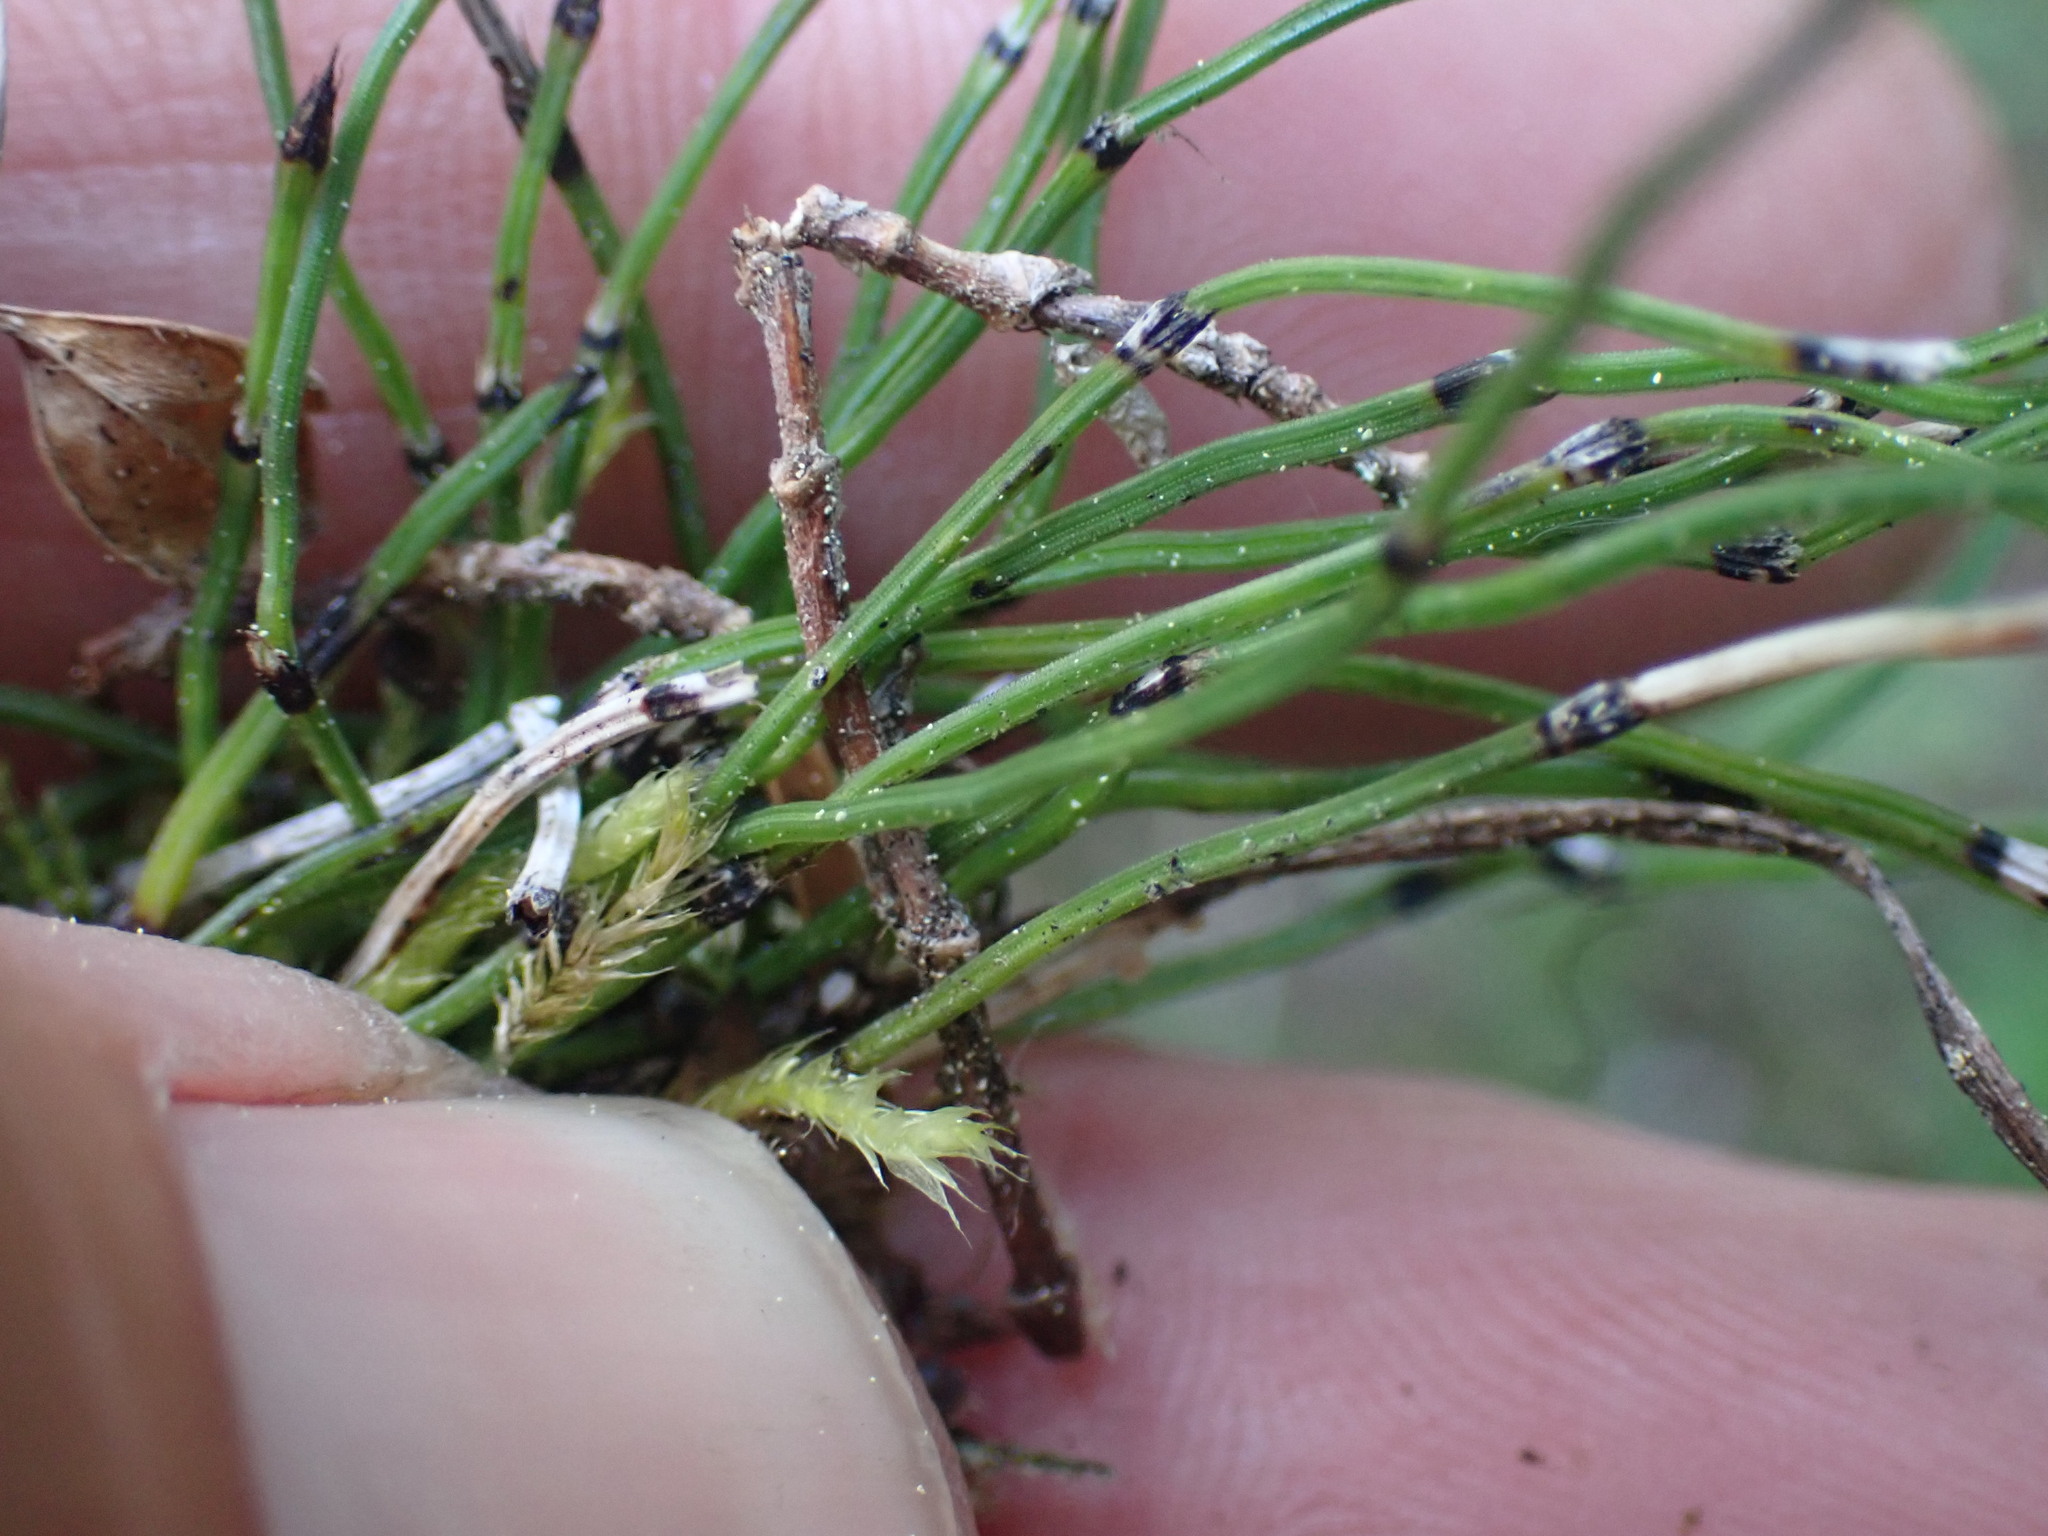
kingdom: Plantae
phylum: Tracheophyta
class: Polypodiopsida
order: Equisetales
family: Equisetaceae
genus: Equisetum
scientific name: Equisetum scirpoides
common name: Delicate horsetail
